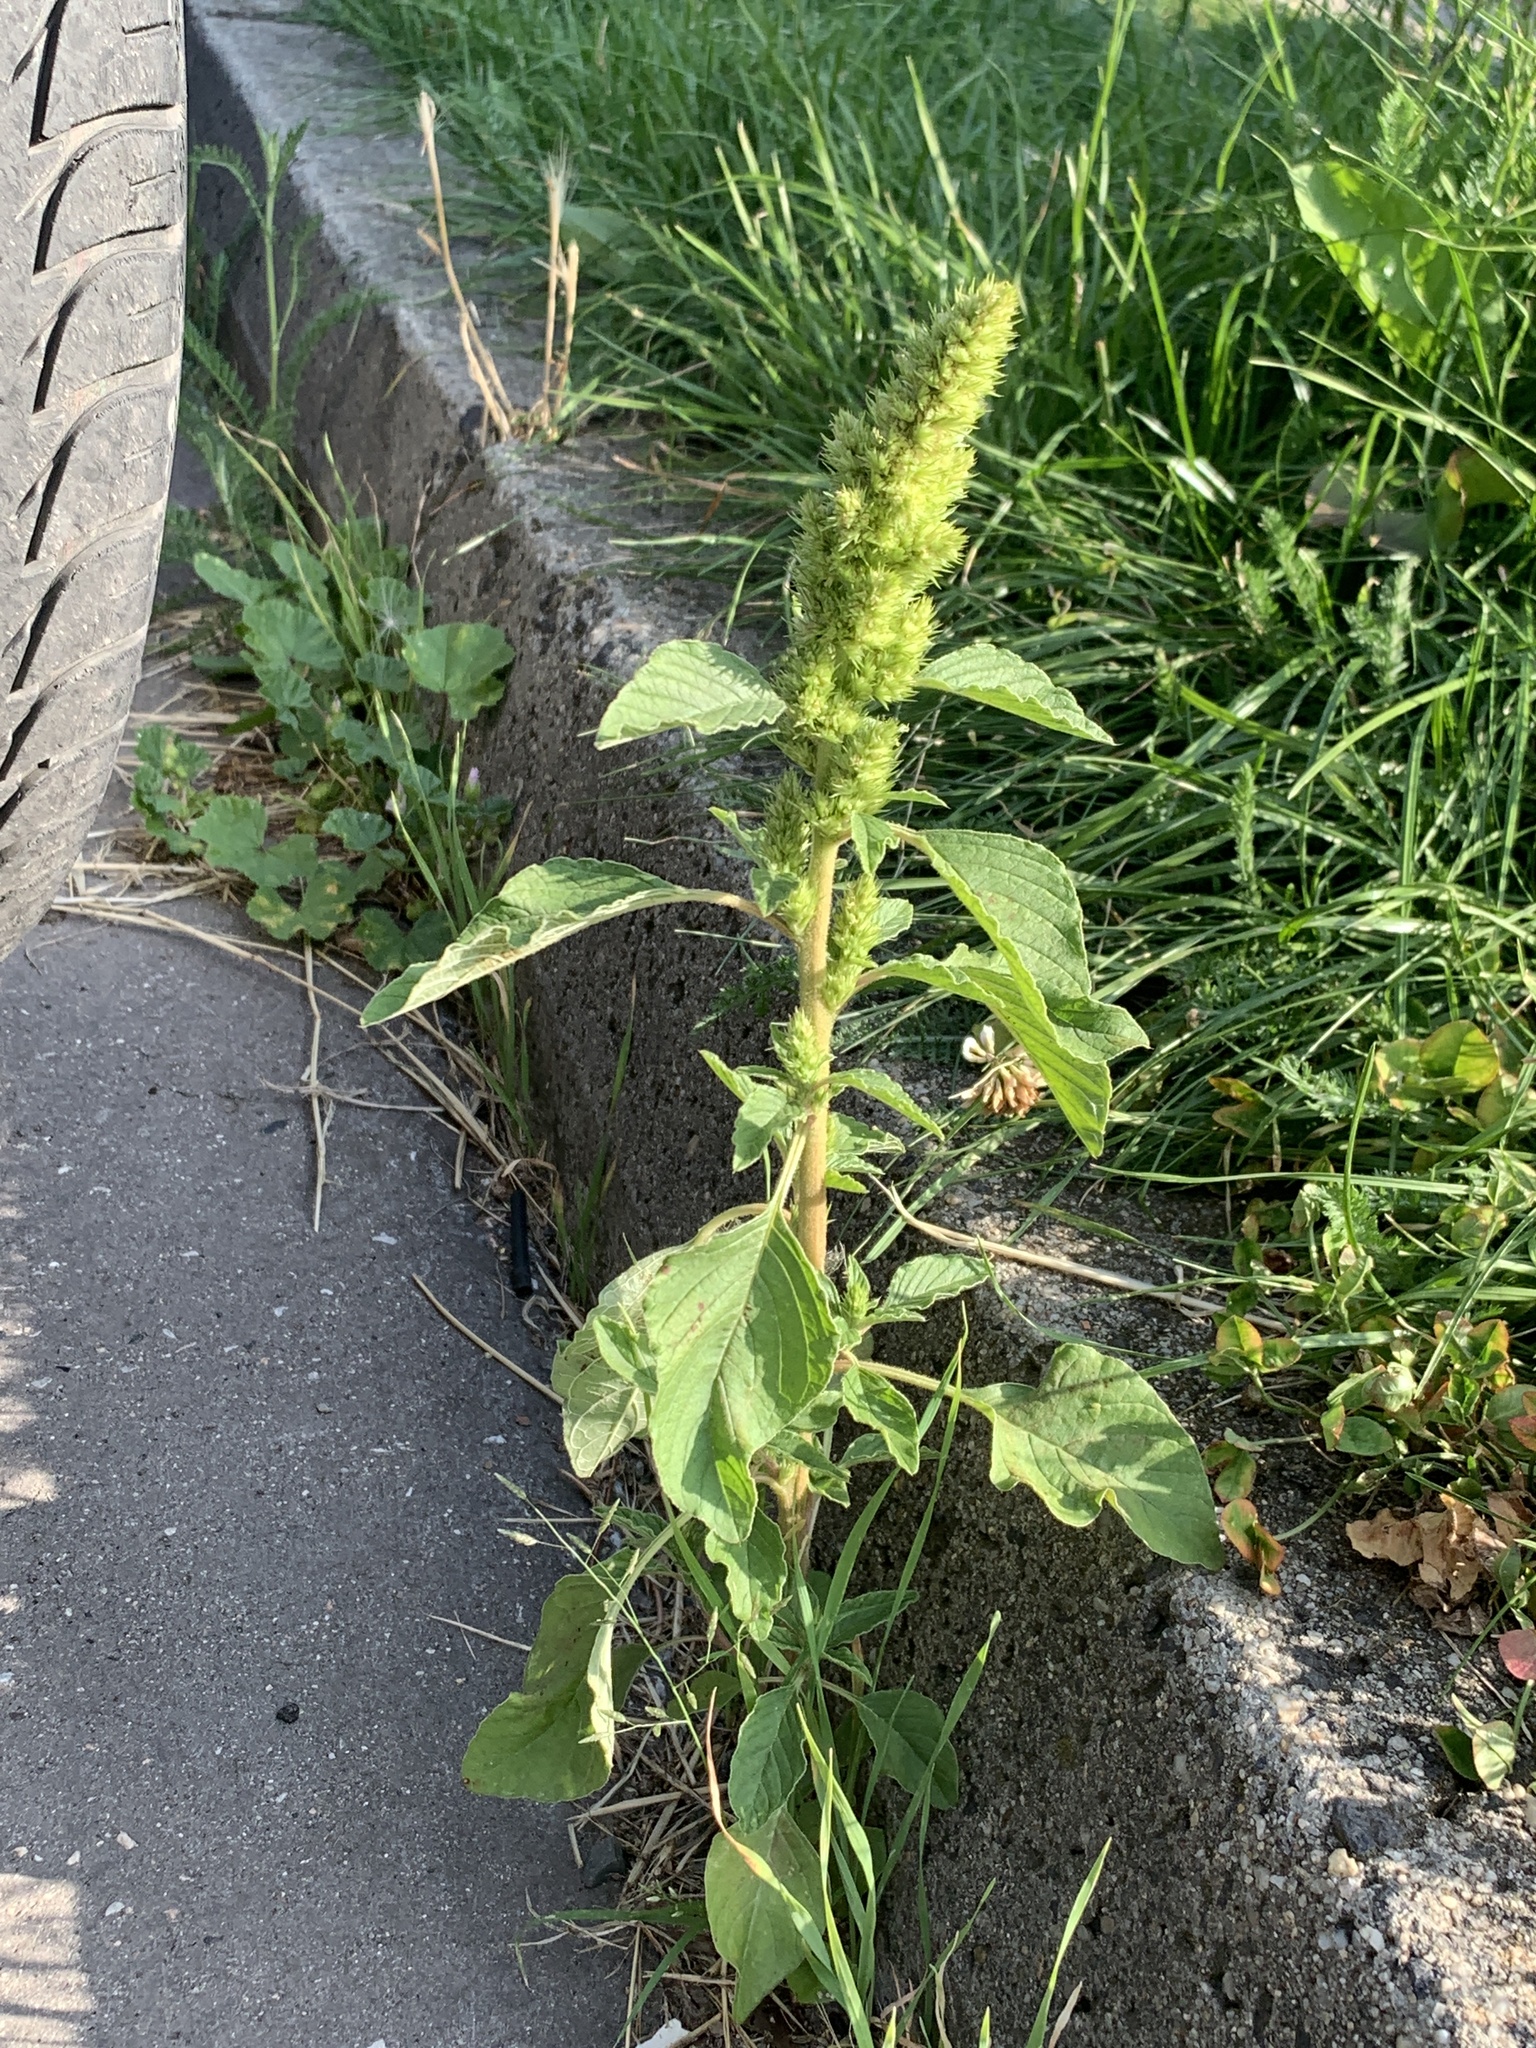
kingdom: Plantae
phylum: Tracheophyta
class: Magnoliopsida
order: Caryophyllales
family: Amaranthaceae
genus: Amaranthus
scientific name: Amaranthus retroflexus
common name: Redroot amaranth
